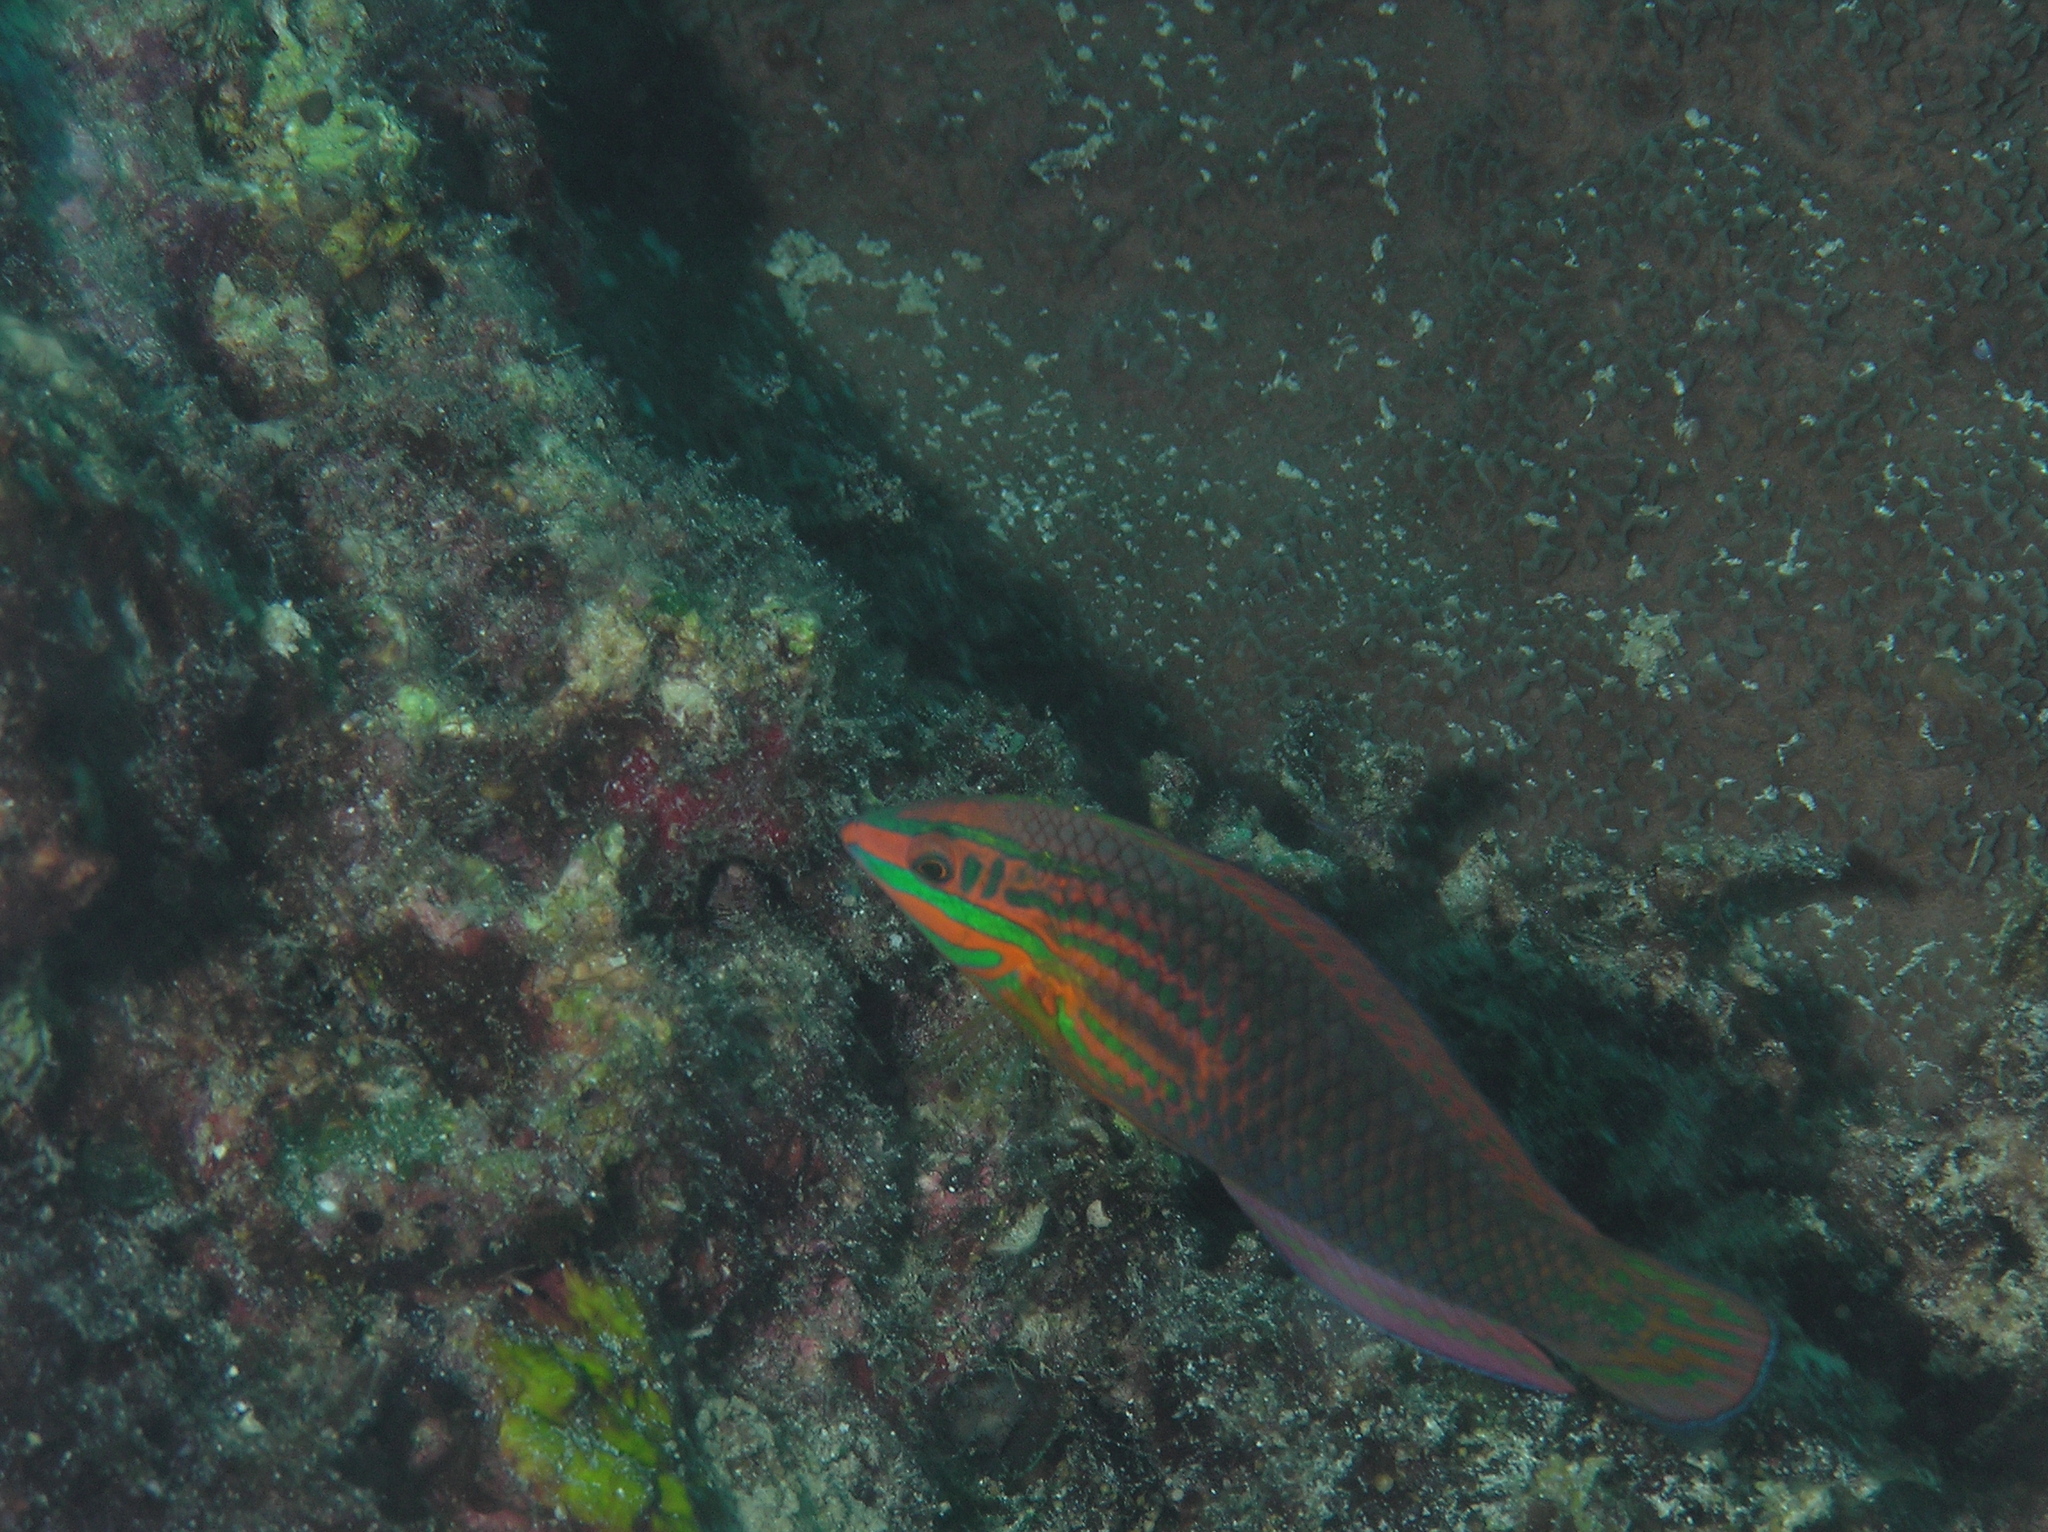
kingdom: Animalia
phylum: Chordata
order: Perciformes
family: Labridae
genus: Halichoeres
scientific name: Halichoeres biocellatus
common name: False-eyed wrasse
